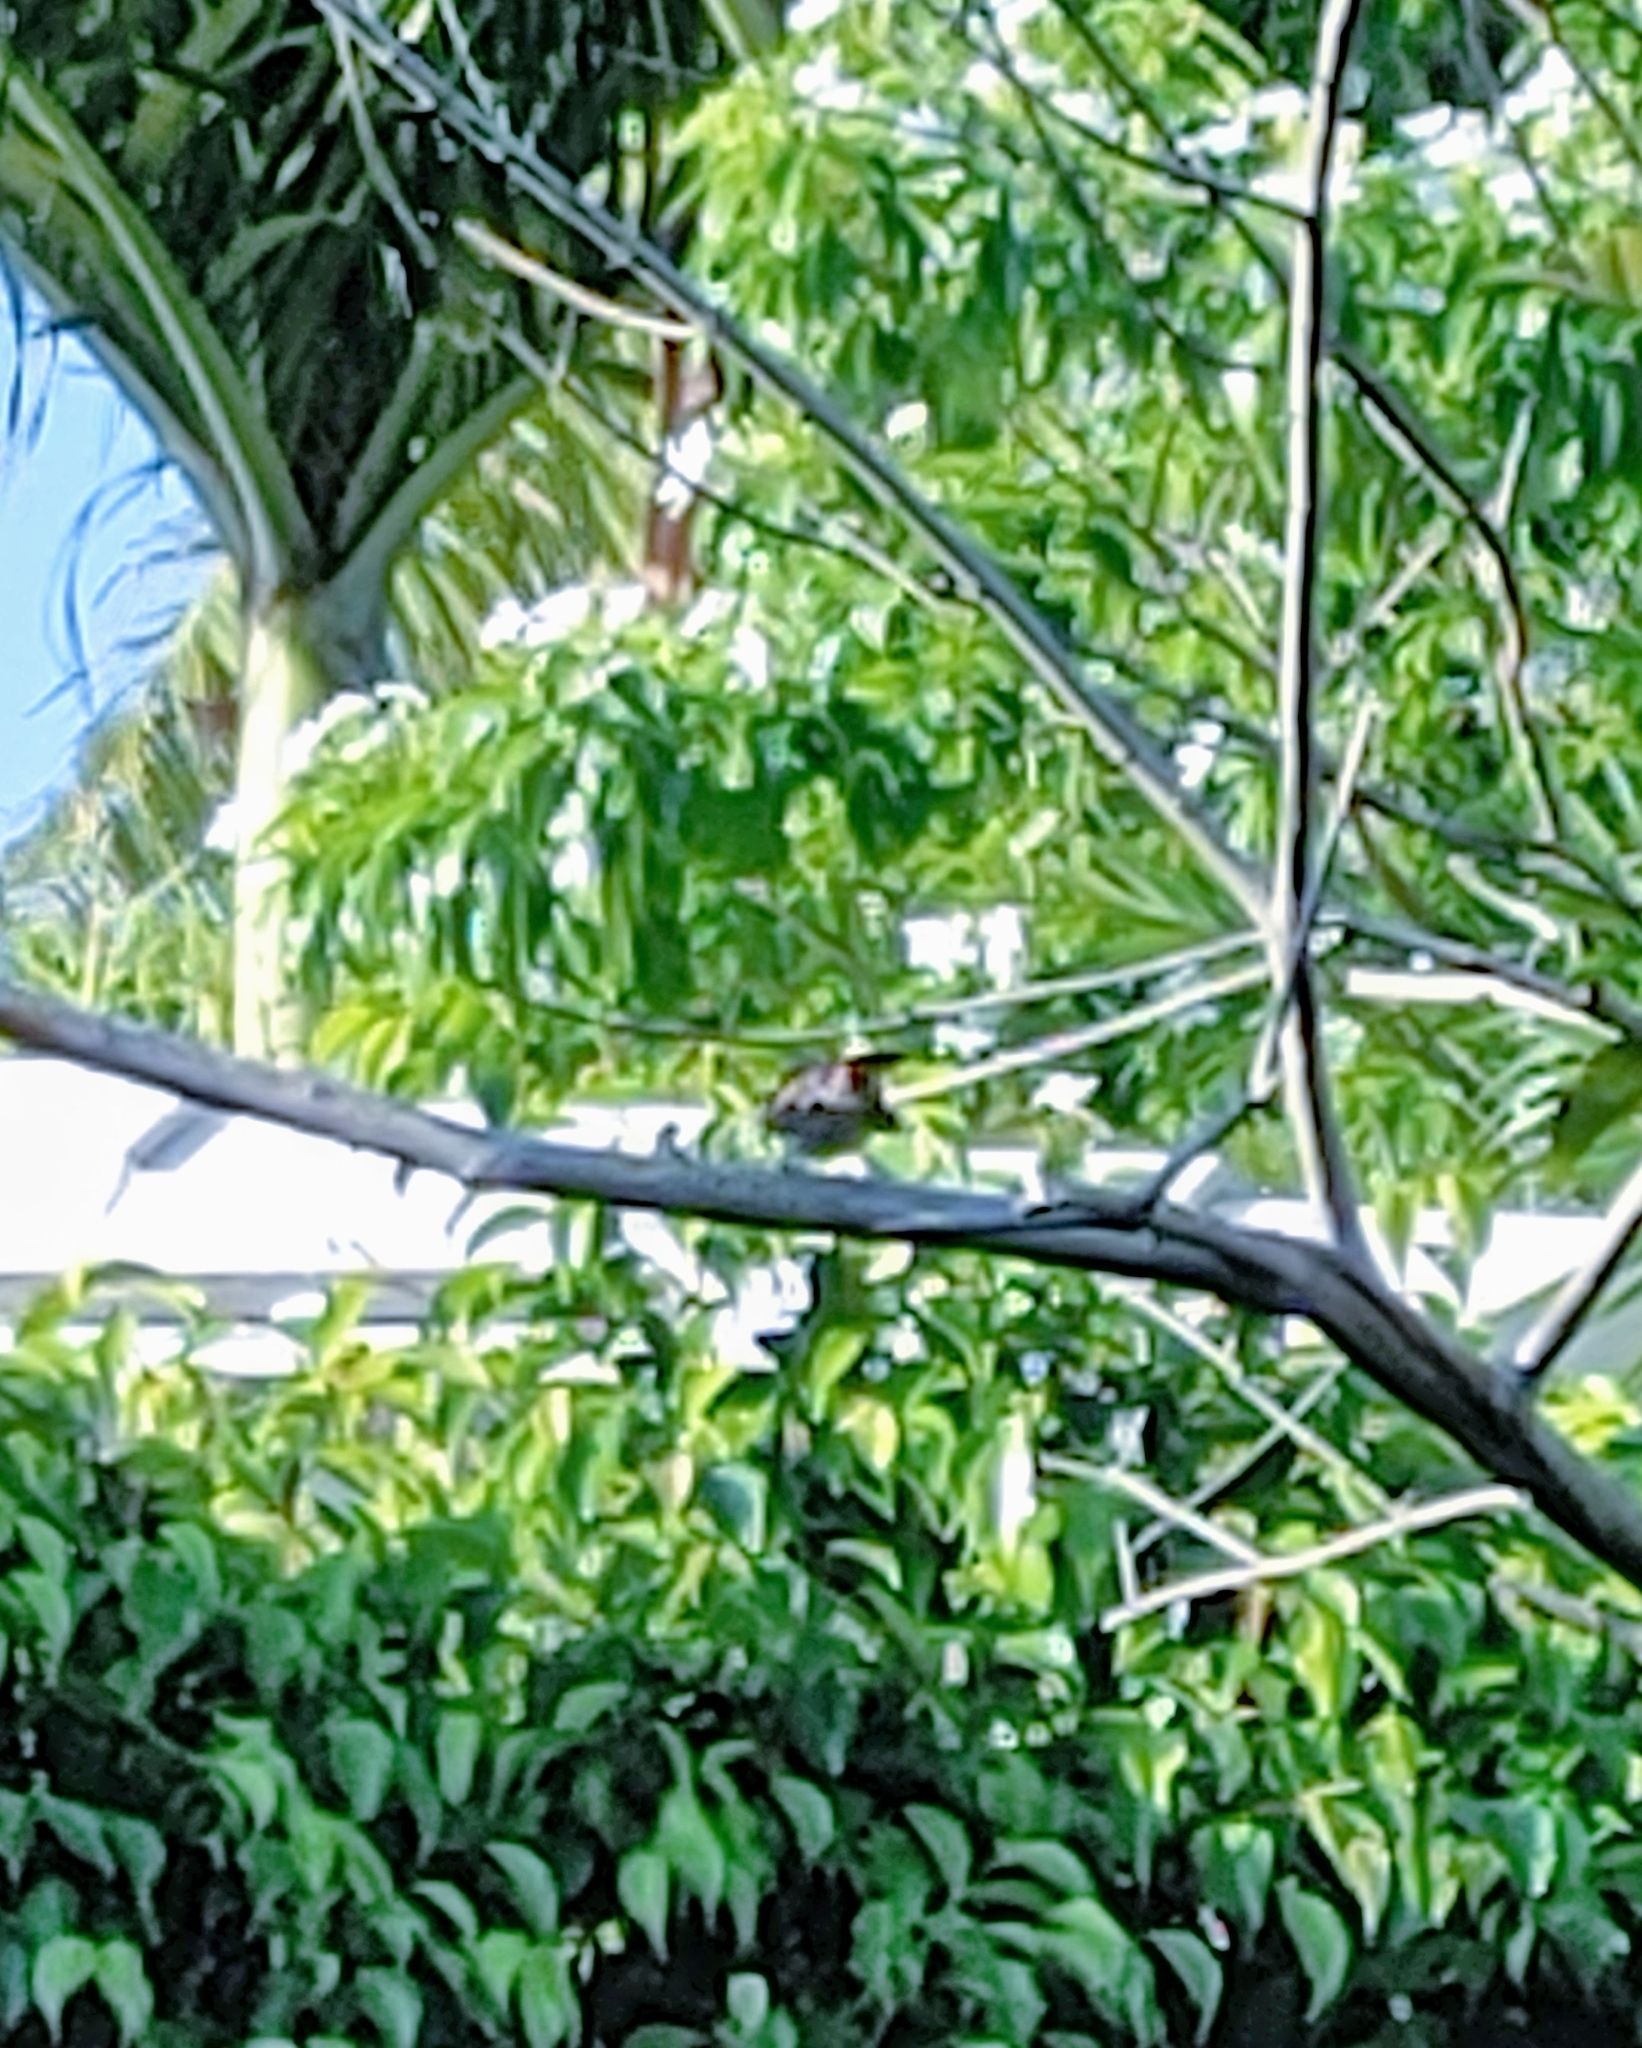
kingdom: Animalia
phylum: Chordata
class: Aves
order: Passeriformes
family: Parulidae
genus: Setophaga
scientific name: Setophaga ruticilla
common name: American redstart
